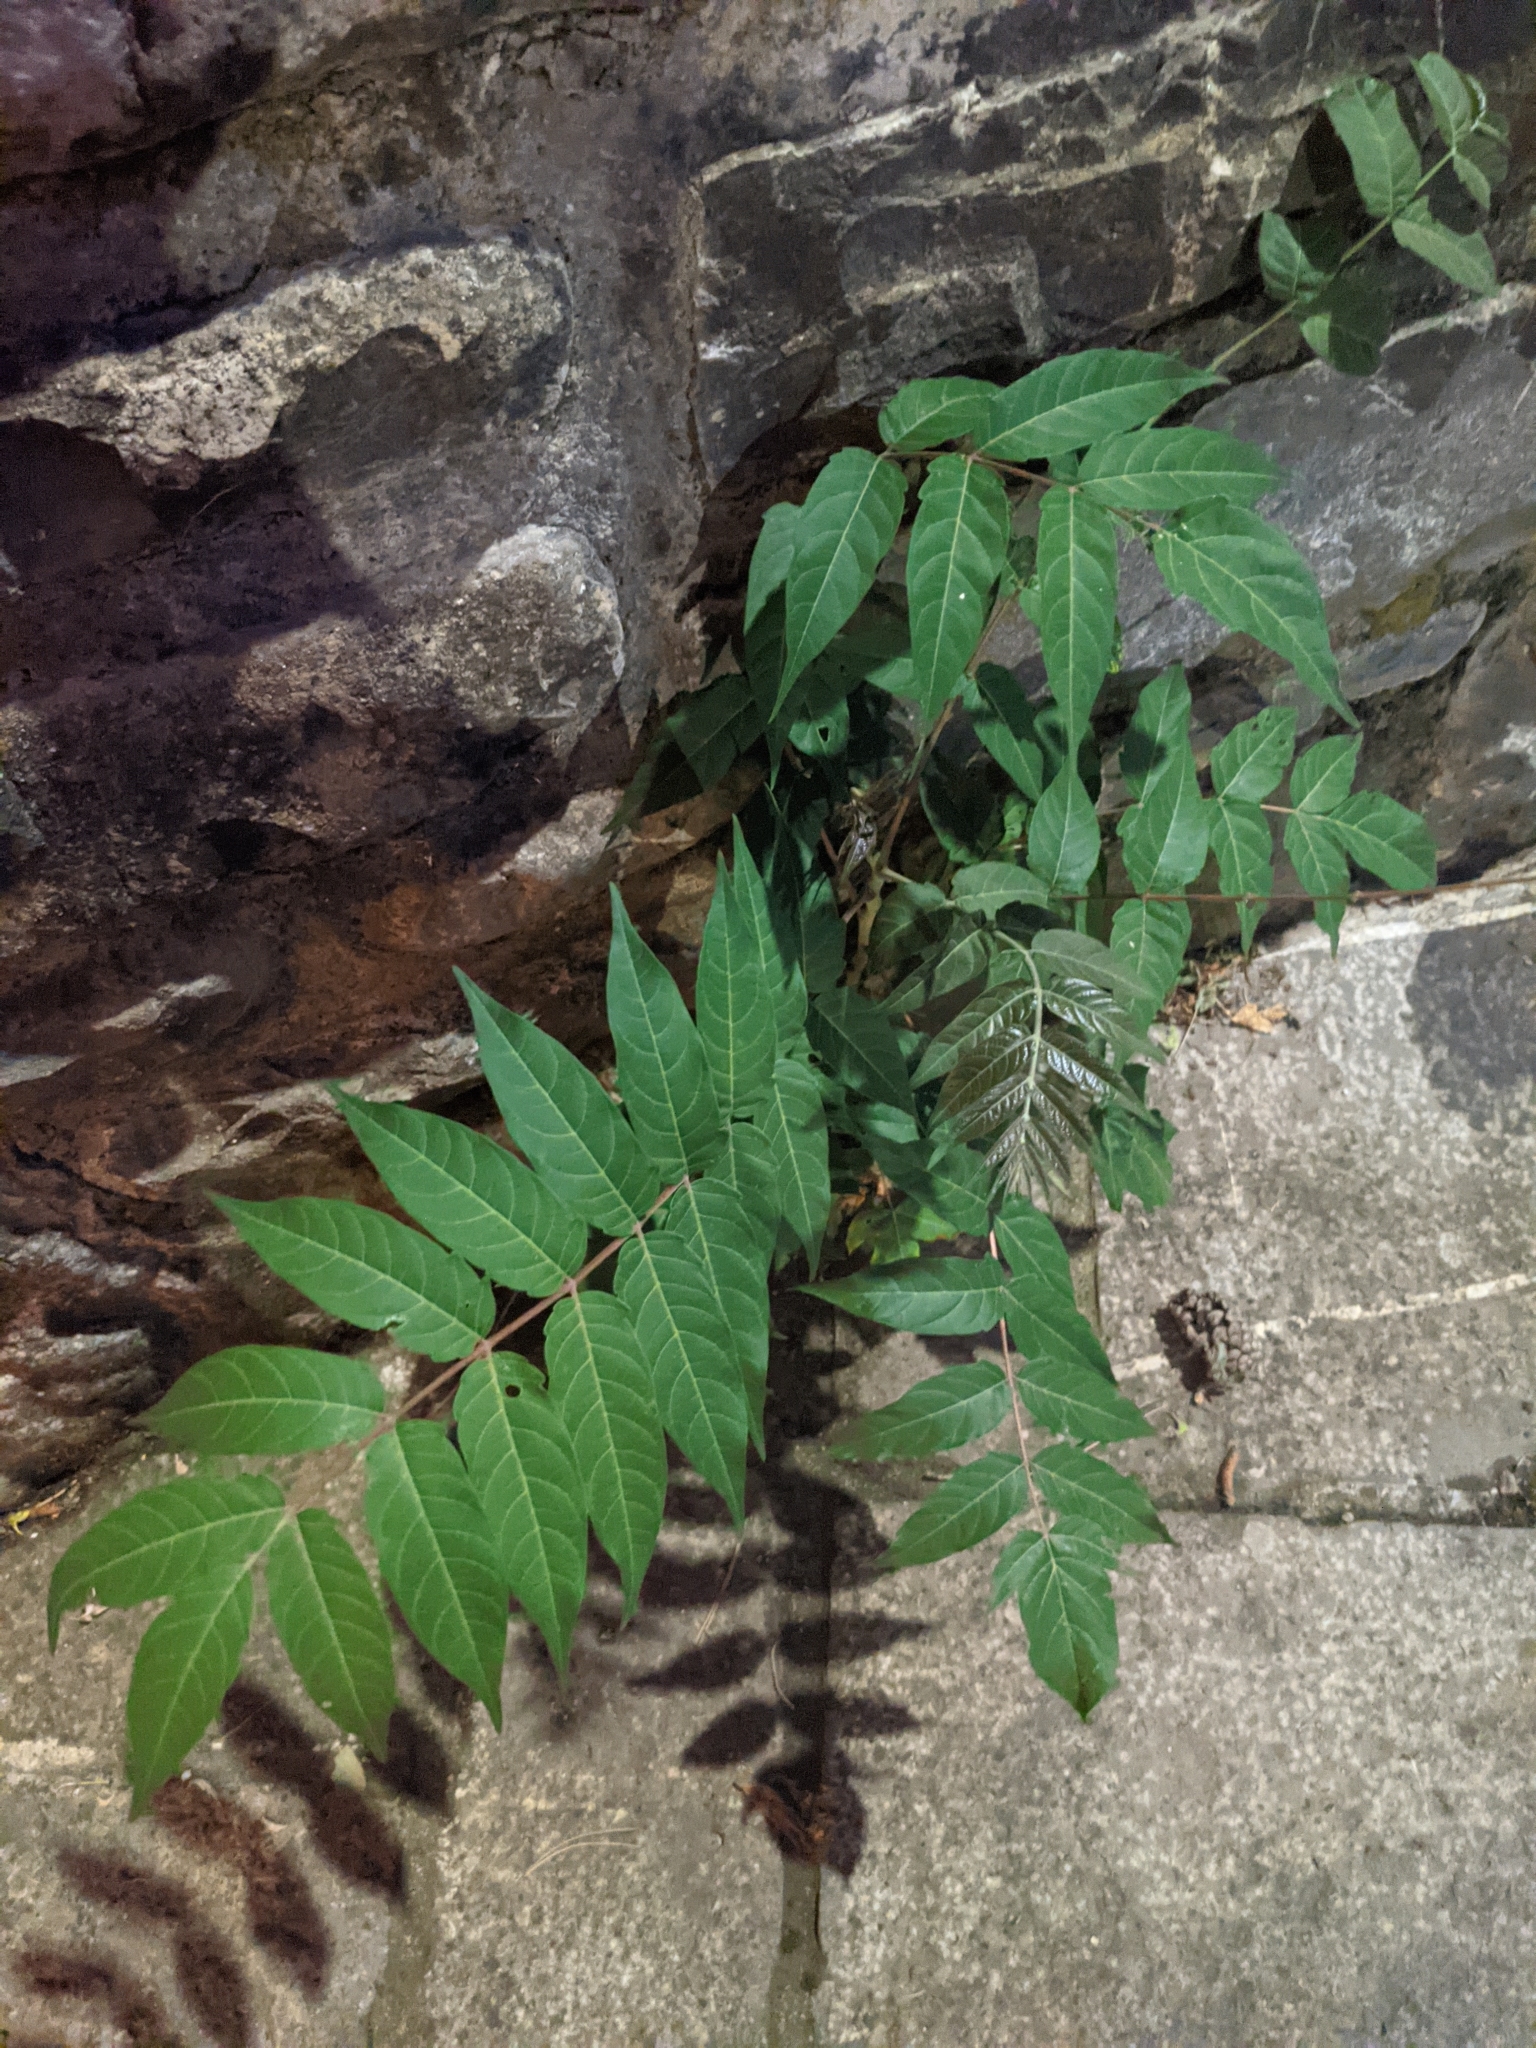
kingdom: Plantae
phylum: Tracheophyta
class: Magnoliopsida
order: Sapindales
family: Simaroubaceae
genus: Ailanthus
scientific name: Ailanthus altissima
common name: Tree-of-heaven
